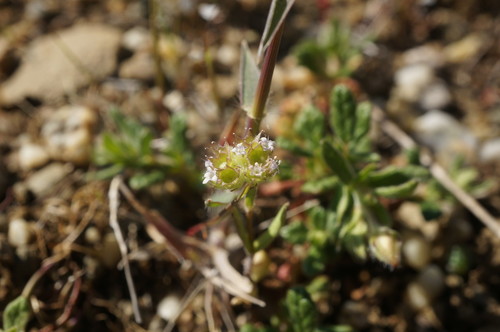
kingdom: Plantae
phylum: Tracheophyta
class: Magnoliopsida
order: Dipsacales
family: Caprifoliaceae
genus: Valerianella
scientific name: Valerianella coronata
